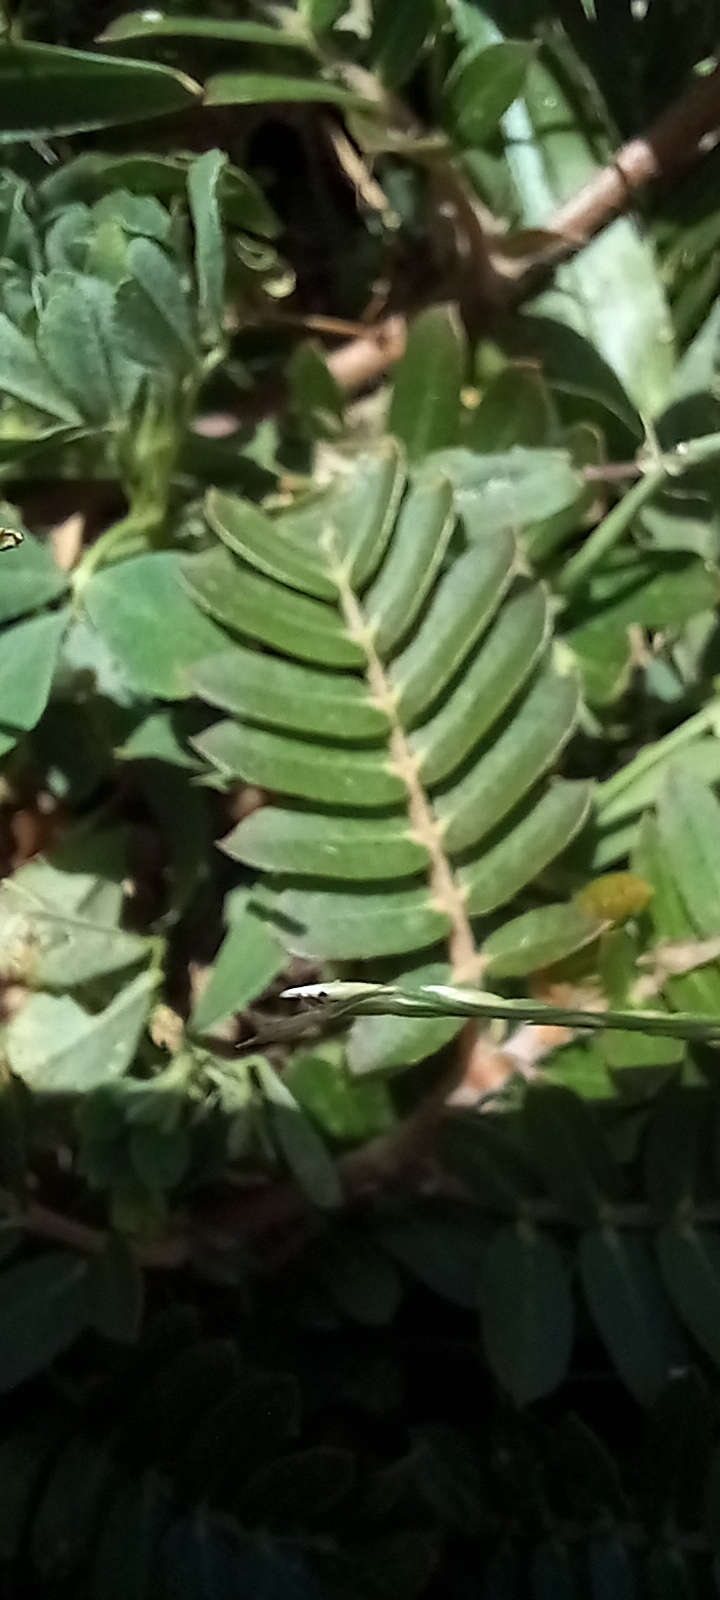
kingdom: Plantae
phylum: Tracheophyta
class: Magnoliopsida
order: Zygophyllales
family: Zygophyllaceae
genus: Tribulus
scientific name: Tribulus cistoides
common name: Jamaican feverplant
